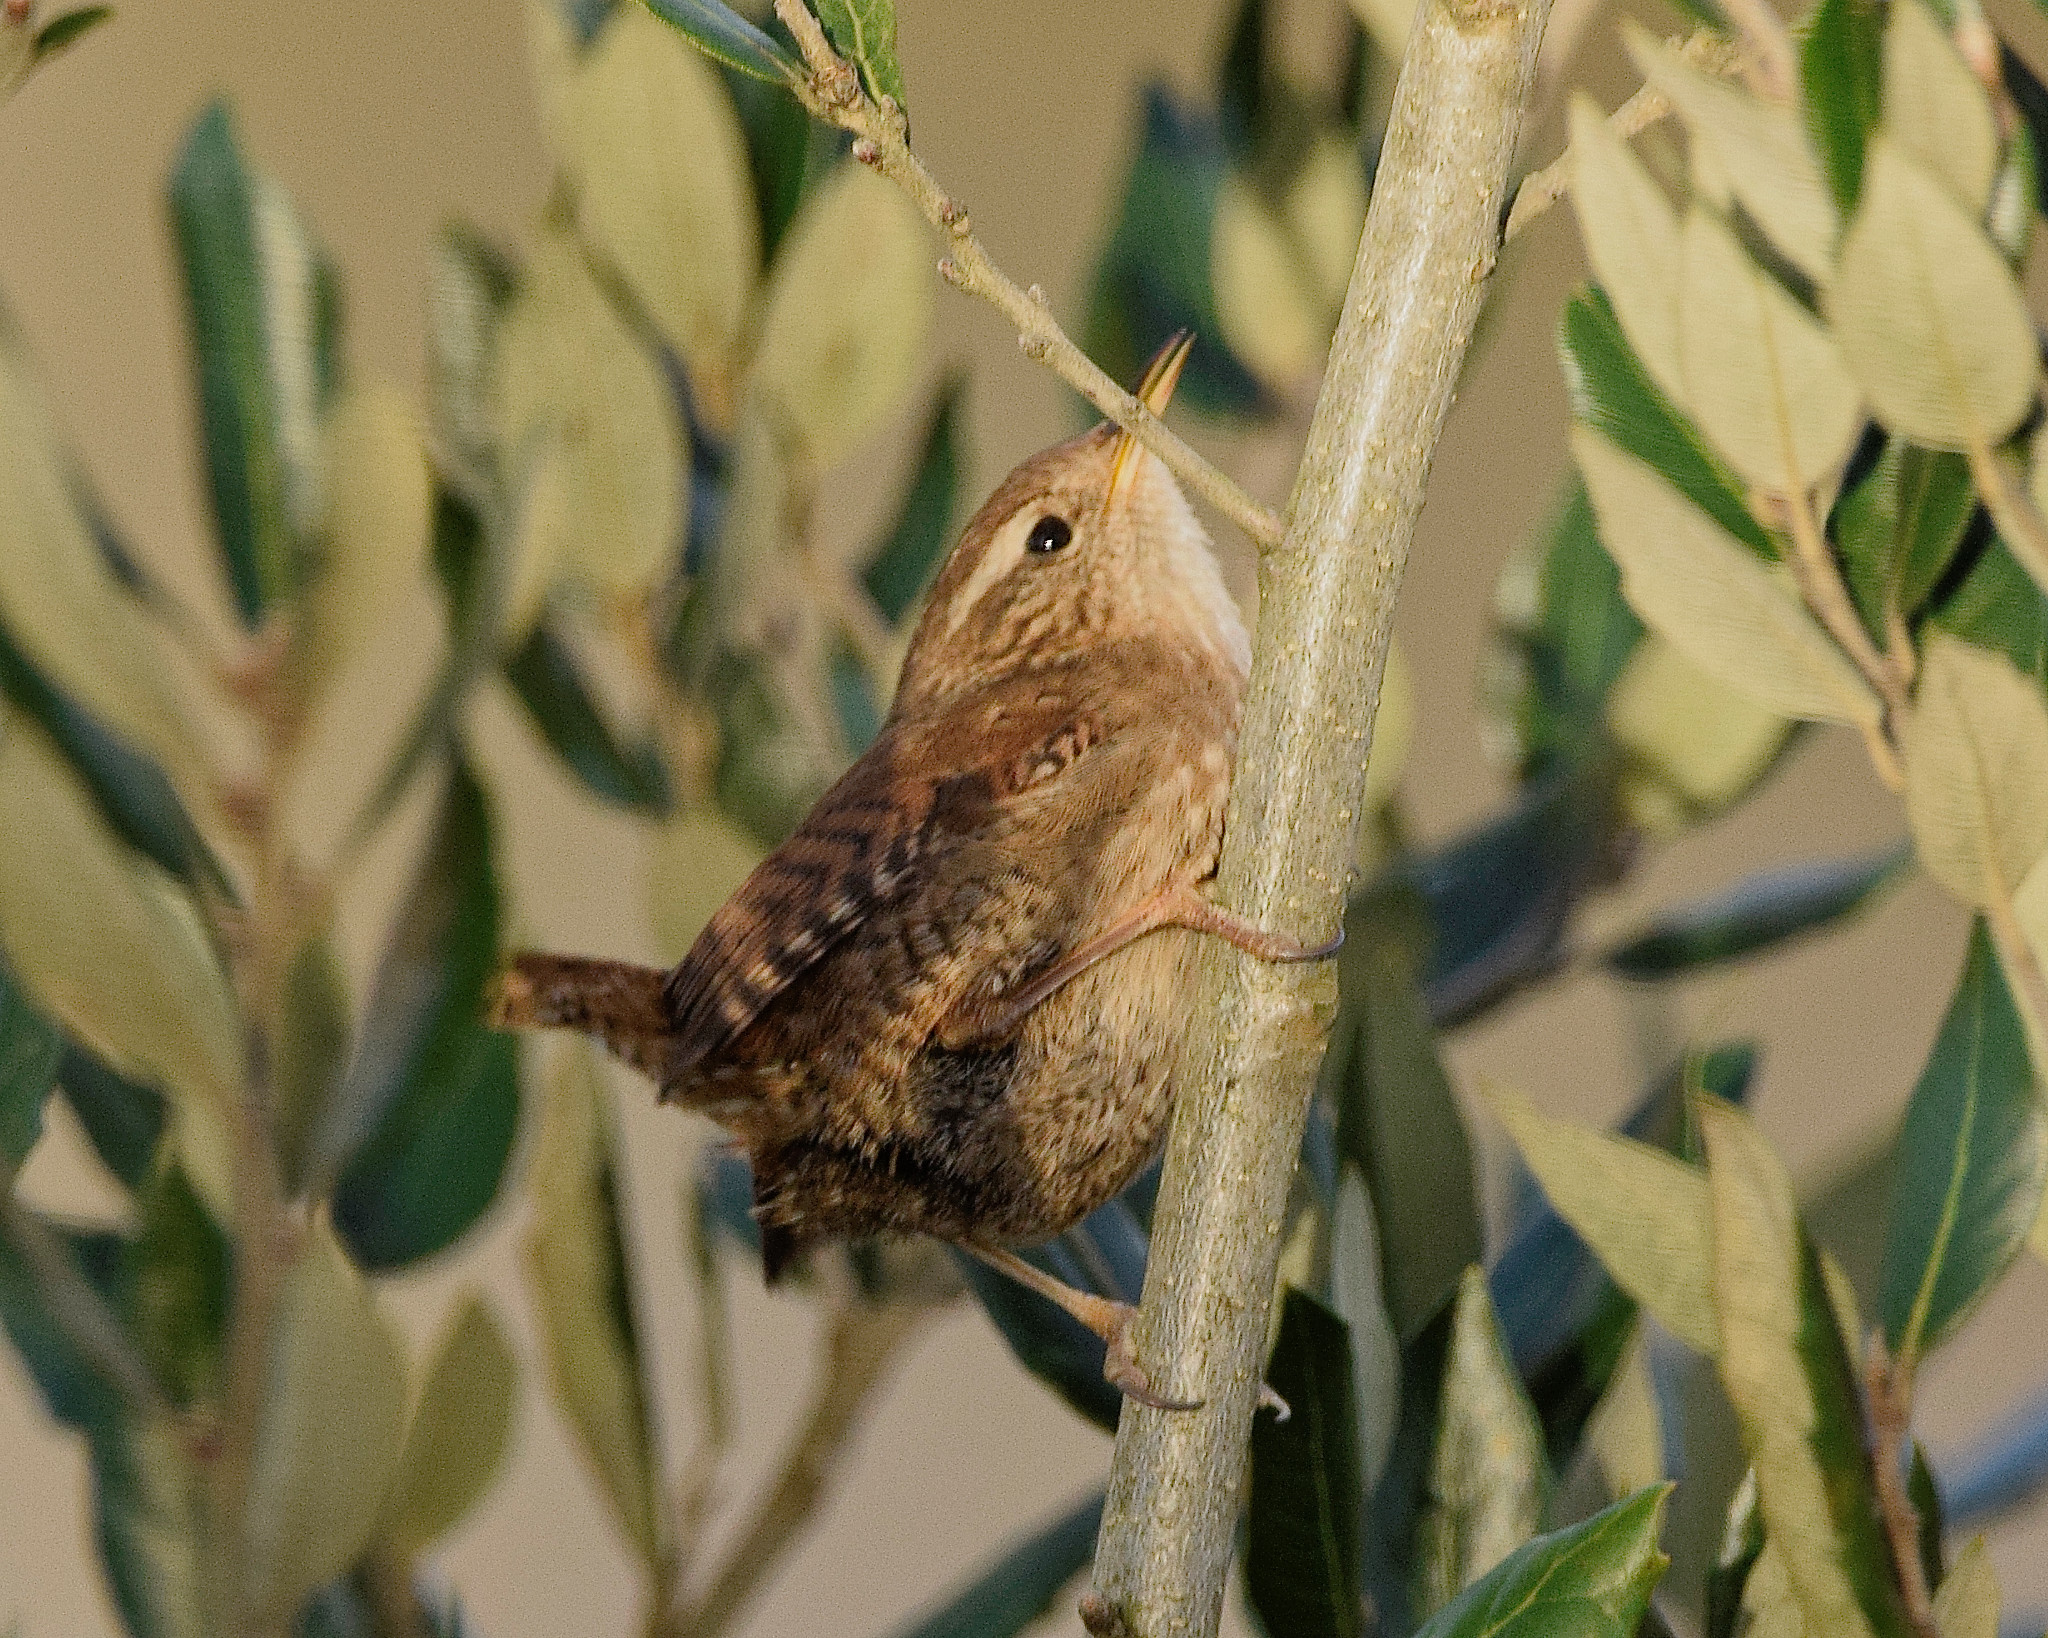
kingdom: Animalia
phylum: Chordata
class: Aves
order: Passeriformes
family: Troglodytidae
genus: Troglodytes
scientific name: Troglodytes troglodytes
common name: Eurasian wren
